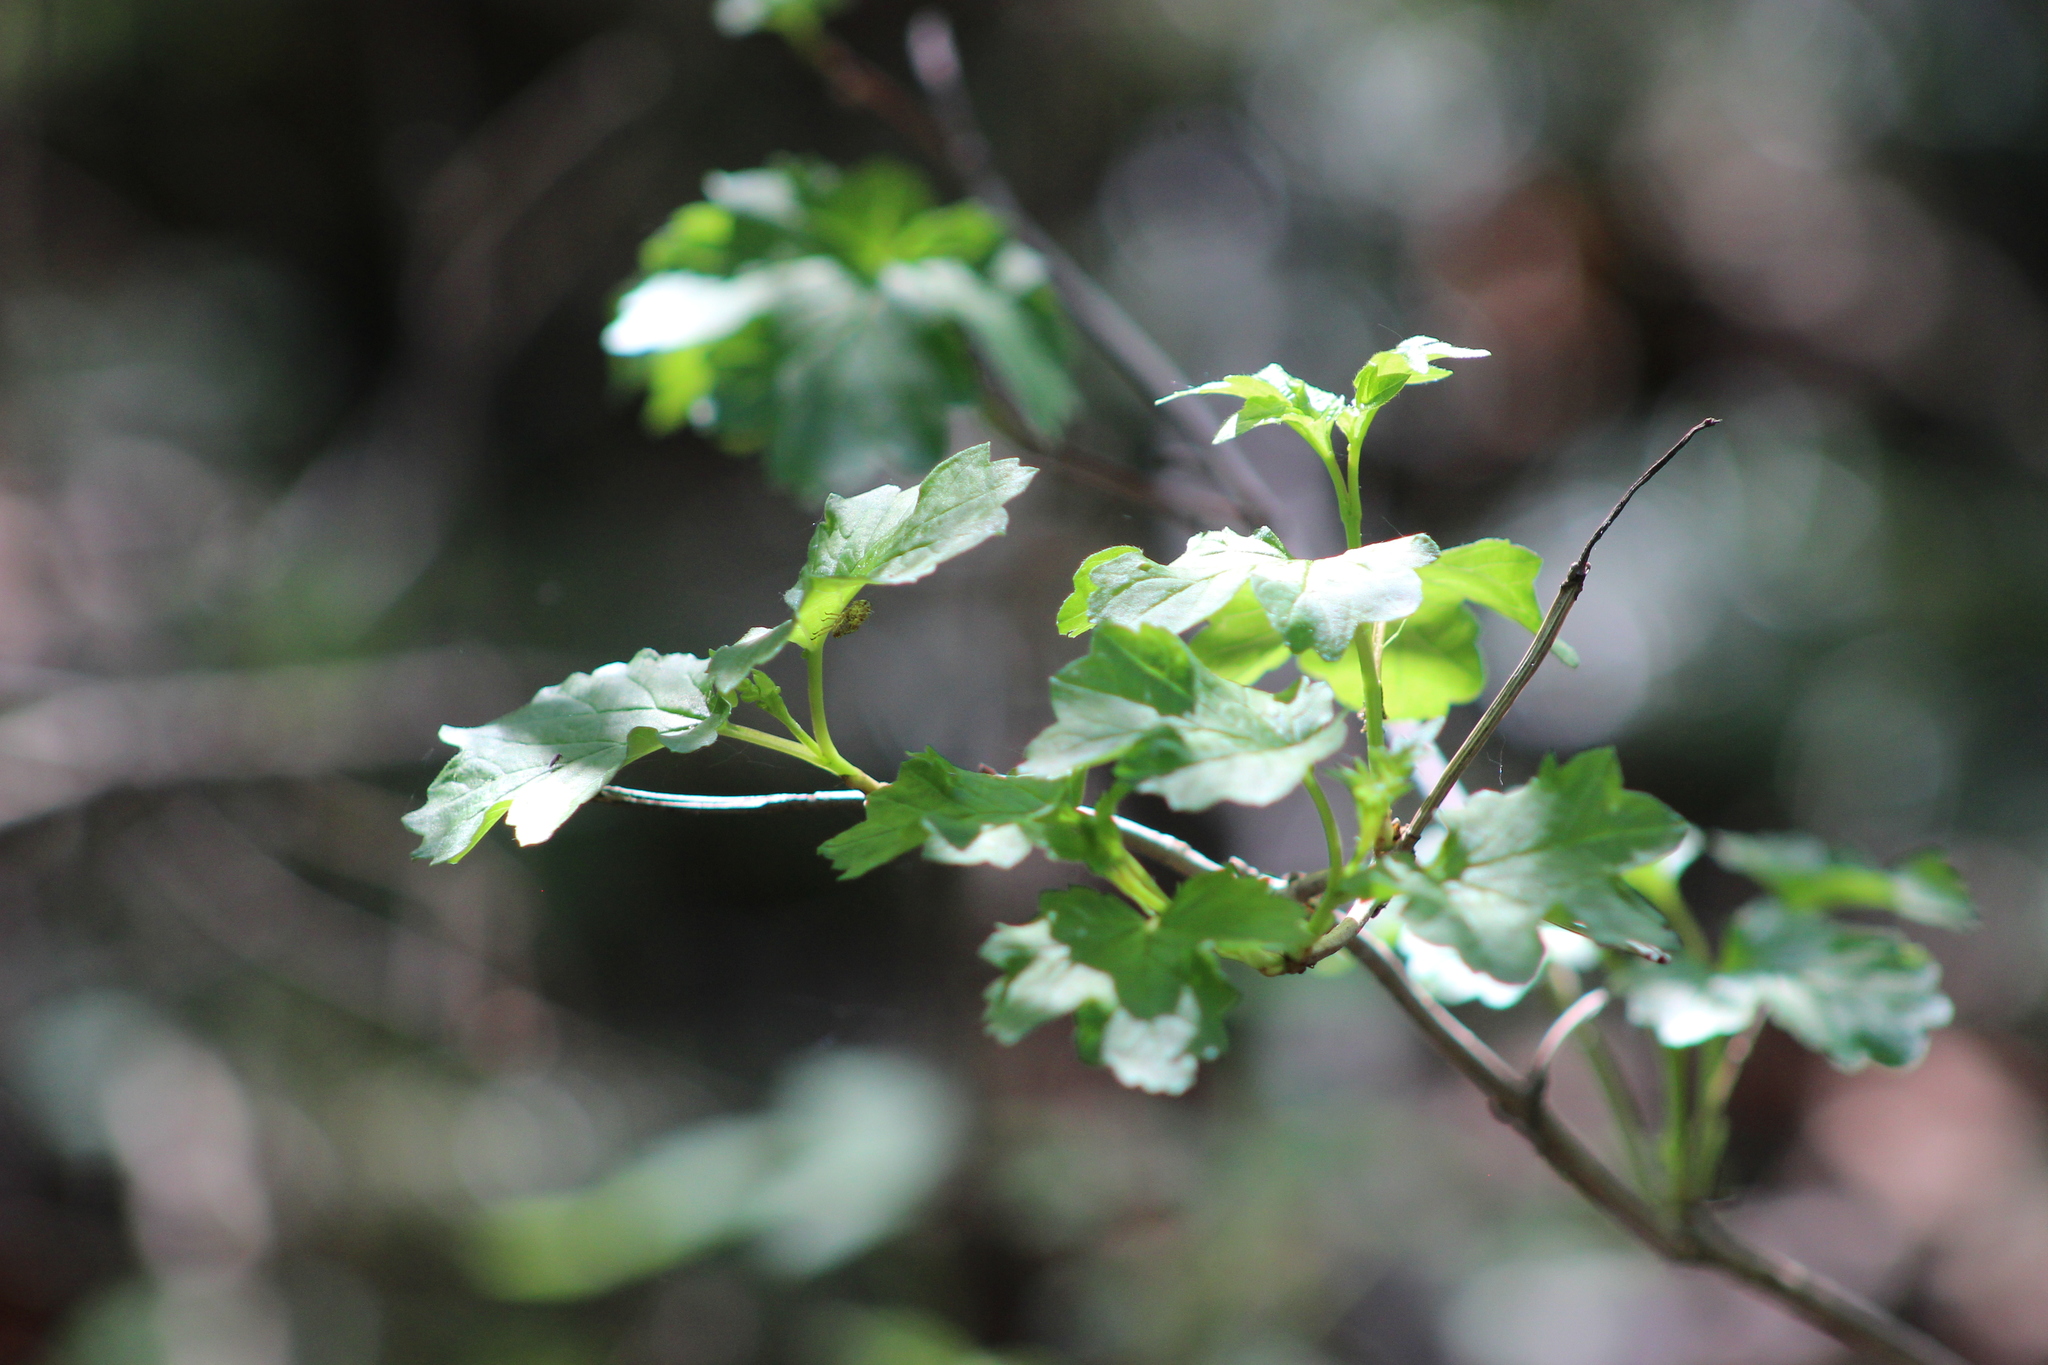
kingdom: Plantae
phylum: Tracheophyta
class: Magnoliopsida
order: Dipsacales
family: Viburnaceae
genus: Viburnum
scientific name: Viburnum opulus
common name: Guelder-rose
